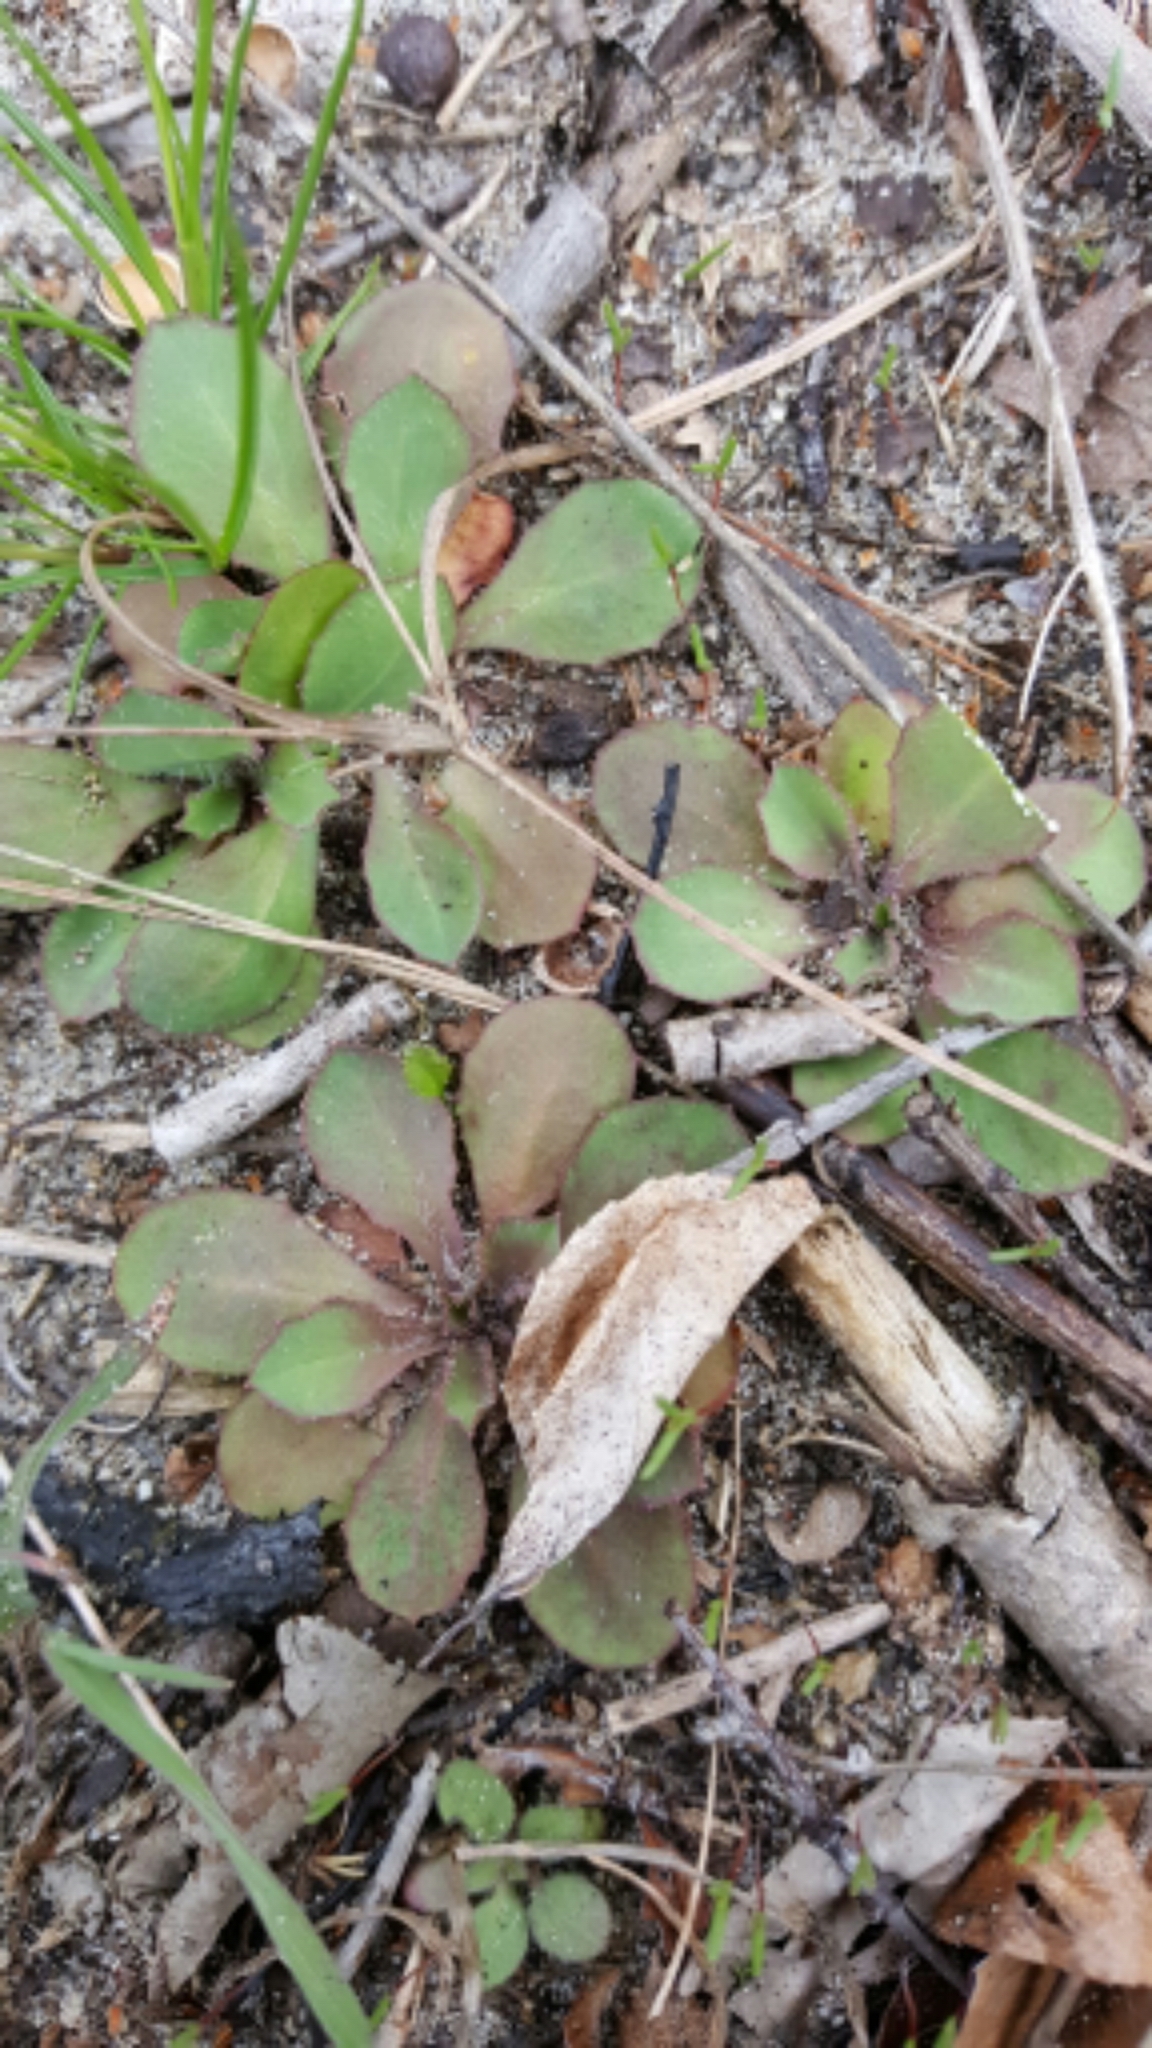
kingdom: Plantae
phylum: Tracheophyta
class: Magnoliopsida
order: Asterales
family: Asteraceae
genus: Krigia
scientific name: Krigia virginica
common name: Virginia dwarf-dandelion
